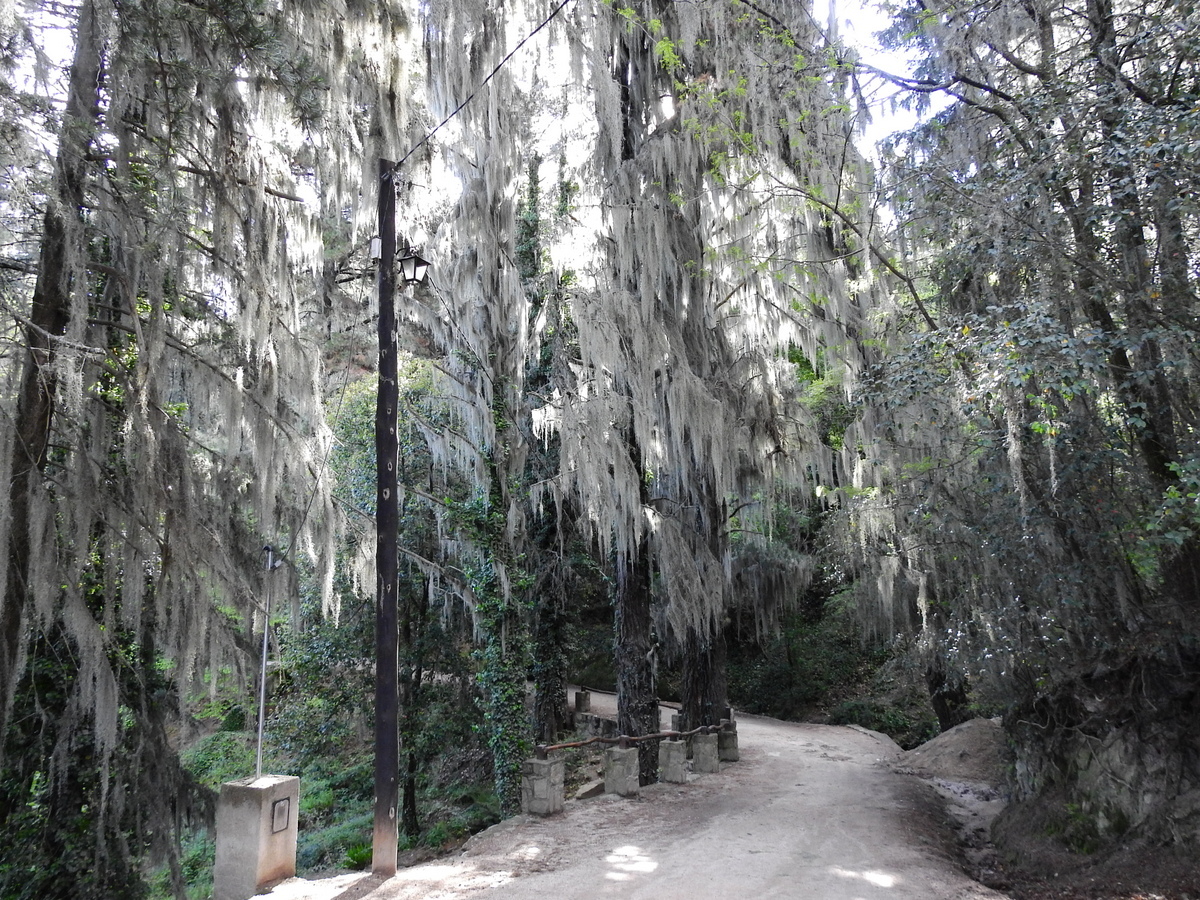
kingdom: Plantae
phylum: Tracheophyta
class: Liliopsida
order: Poales
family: Bromeliaceae
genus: Tillandsia
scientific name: Tillandsia usneoides
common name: Spanish moss
